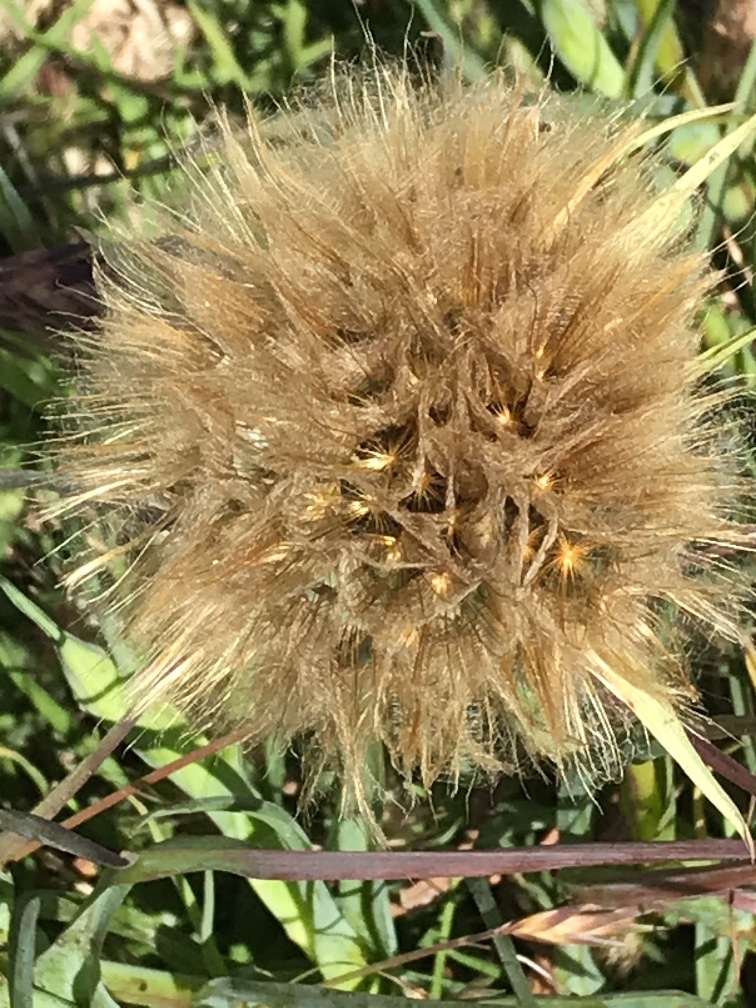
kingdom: Plantae
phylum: Tracheophyta
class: Magnoliopsida
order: Asterales
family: Asteraceae
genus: Tragopogon
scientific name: Tragopogon porrifolius
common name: Salsify
